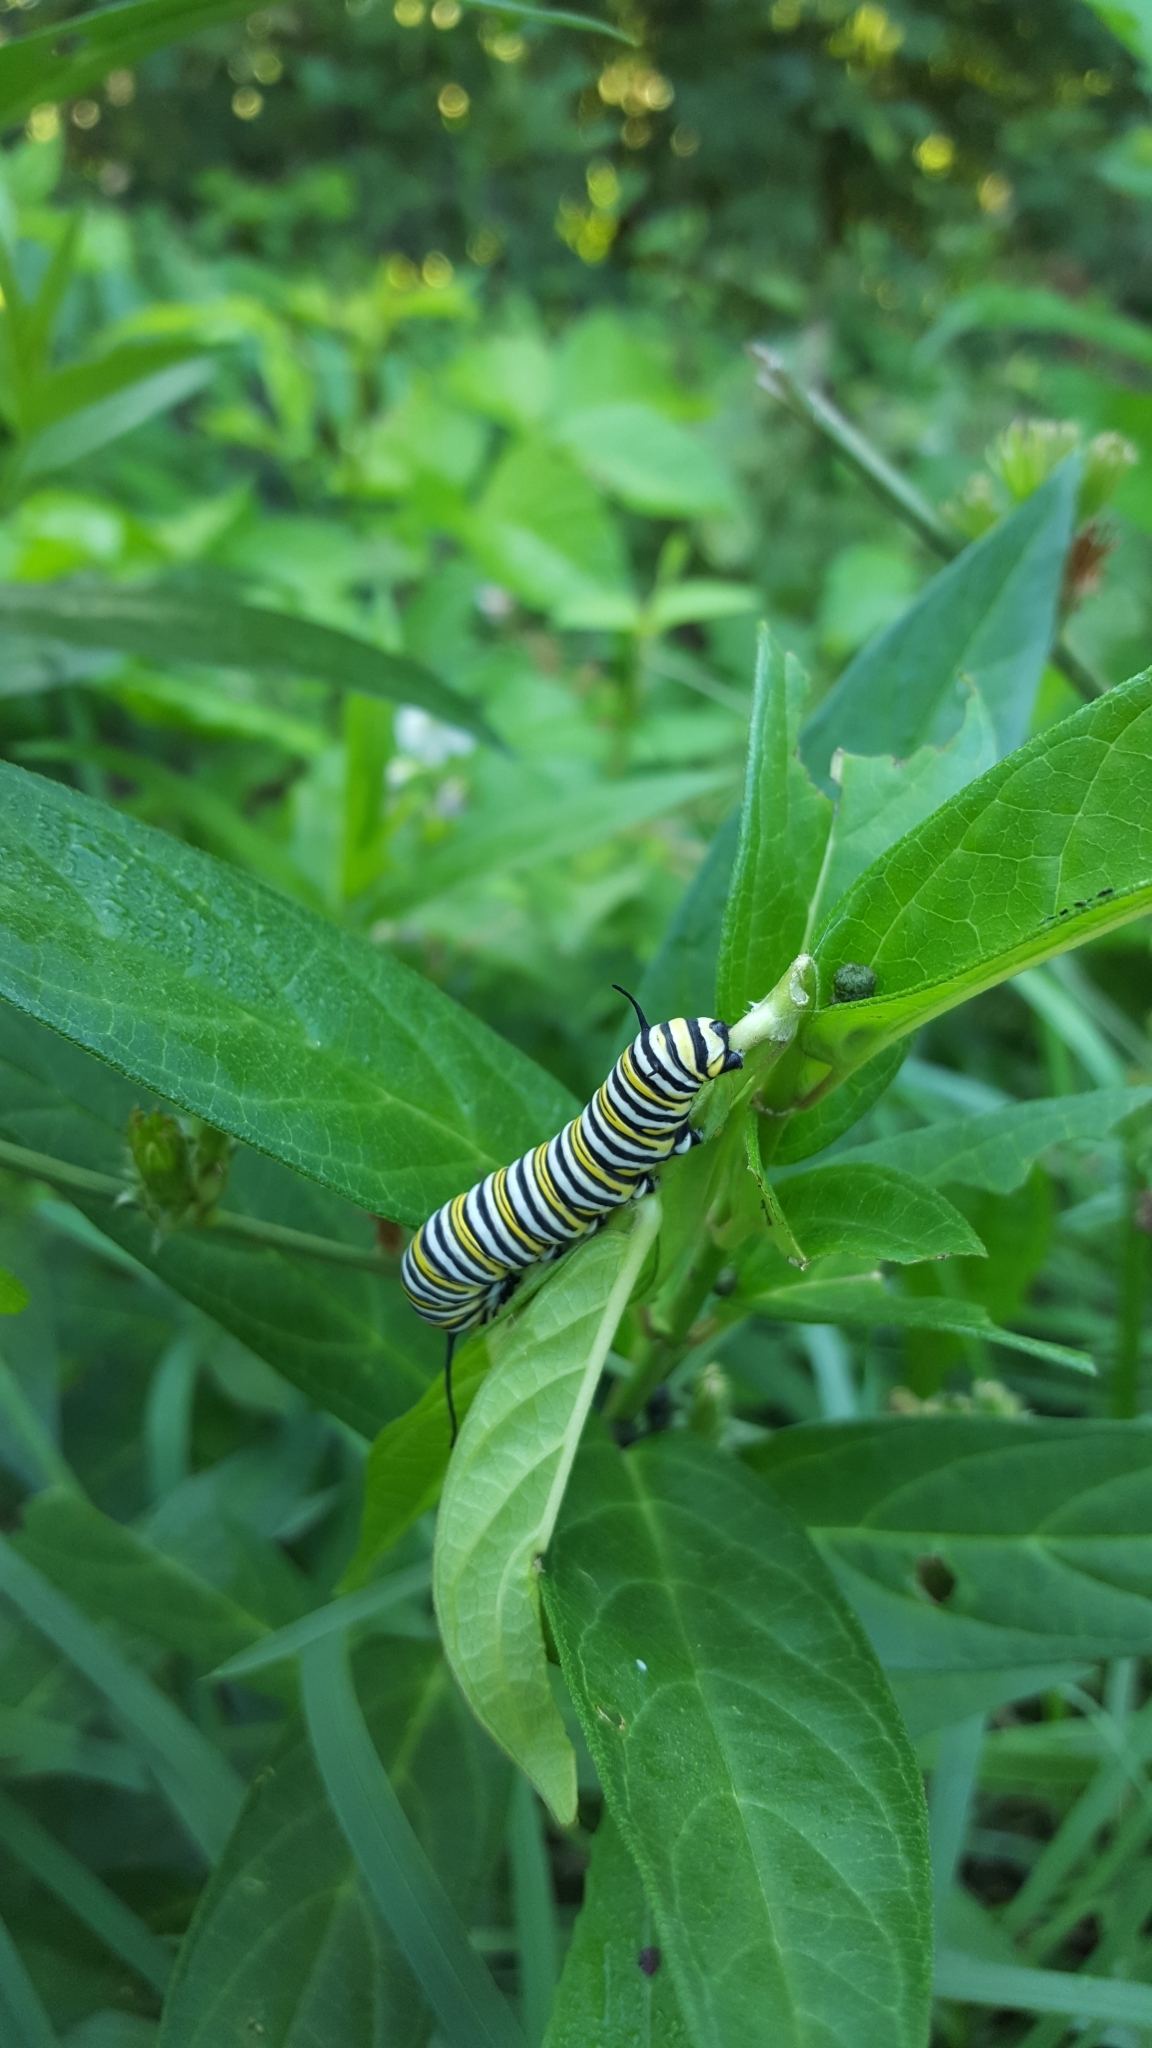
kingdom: Plantae
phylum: Tracheophyta
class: Magnoliopsida
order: Gentianales
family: Apocynaceae
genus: Asclepias
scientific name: Asclepias incarnata
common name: Swamp milkweed
